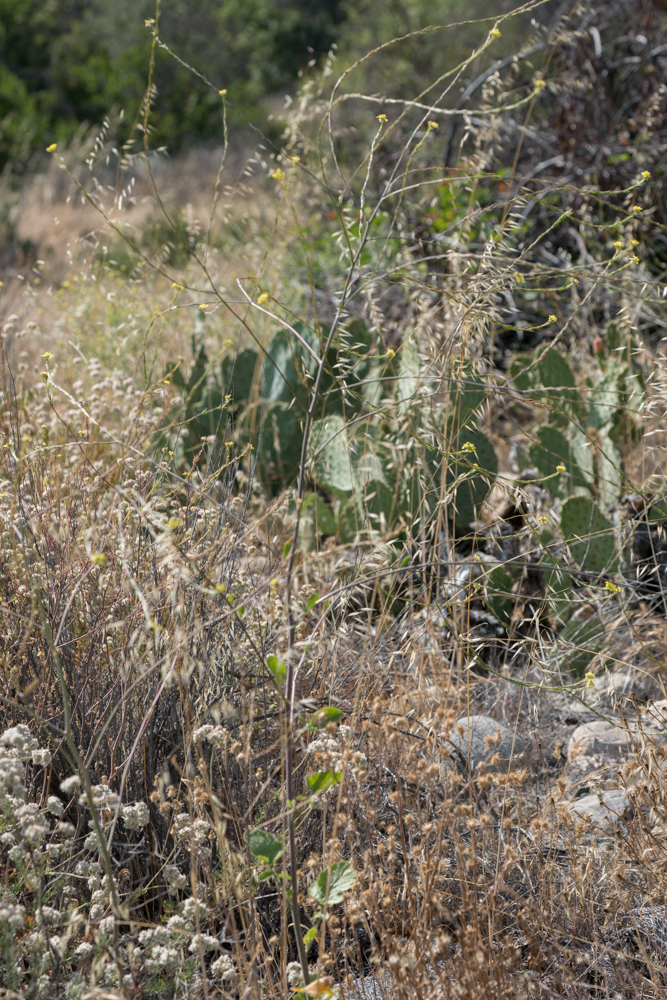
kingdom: Plantae
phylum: Tracheophyta
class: Magnoliopsida
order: Brassicales
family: Brassicaceae
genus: Brassica
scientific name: Brassica nigra
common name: Black mustard
